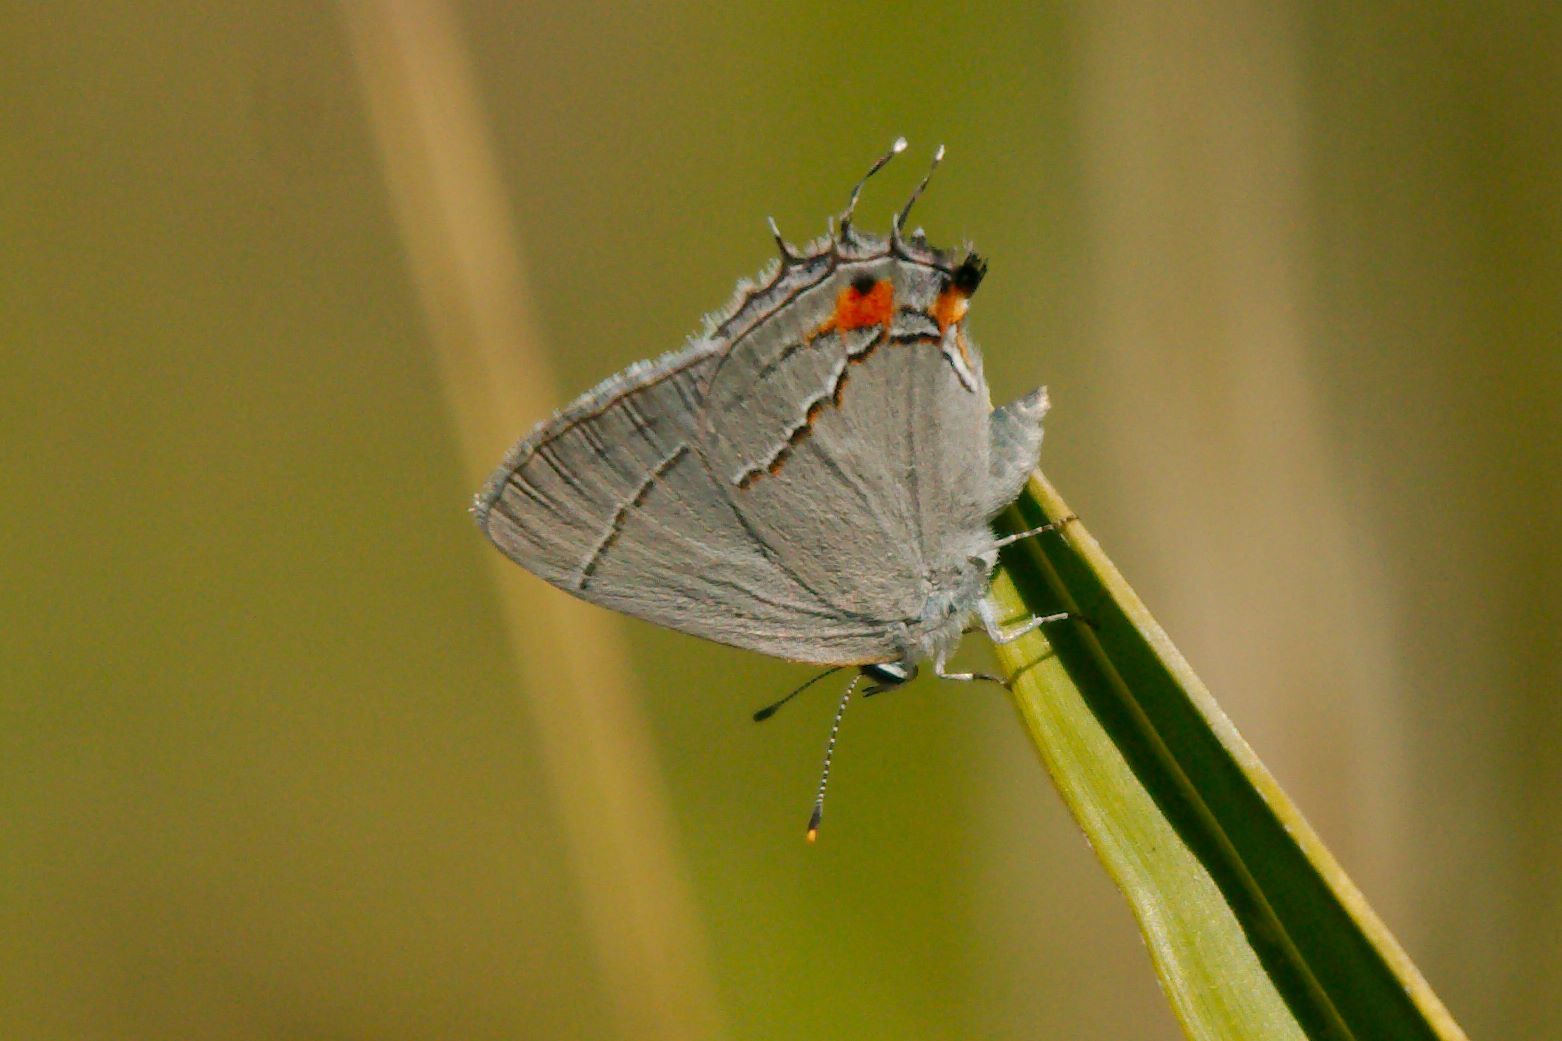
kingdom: Animalia
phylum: Arthropoda
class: Insecta
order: Lepidoptera
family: Lycaenidae
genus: Strymon
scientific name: Strymon melinus
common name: Gray hairstreak
